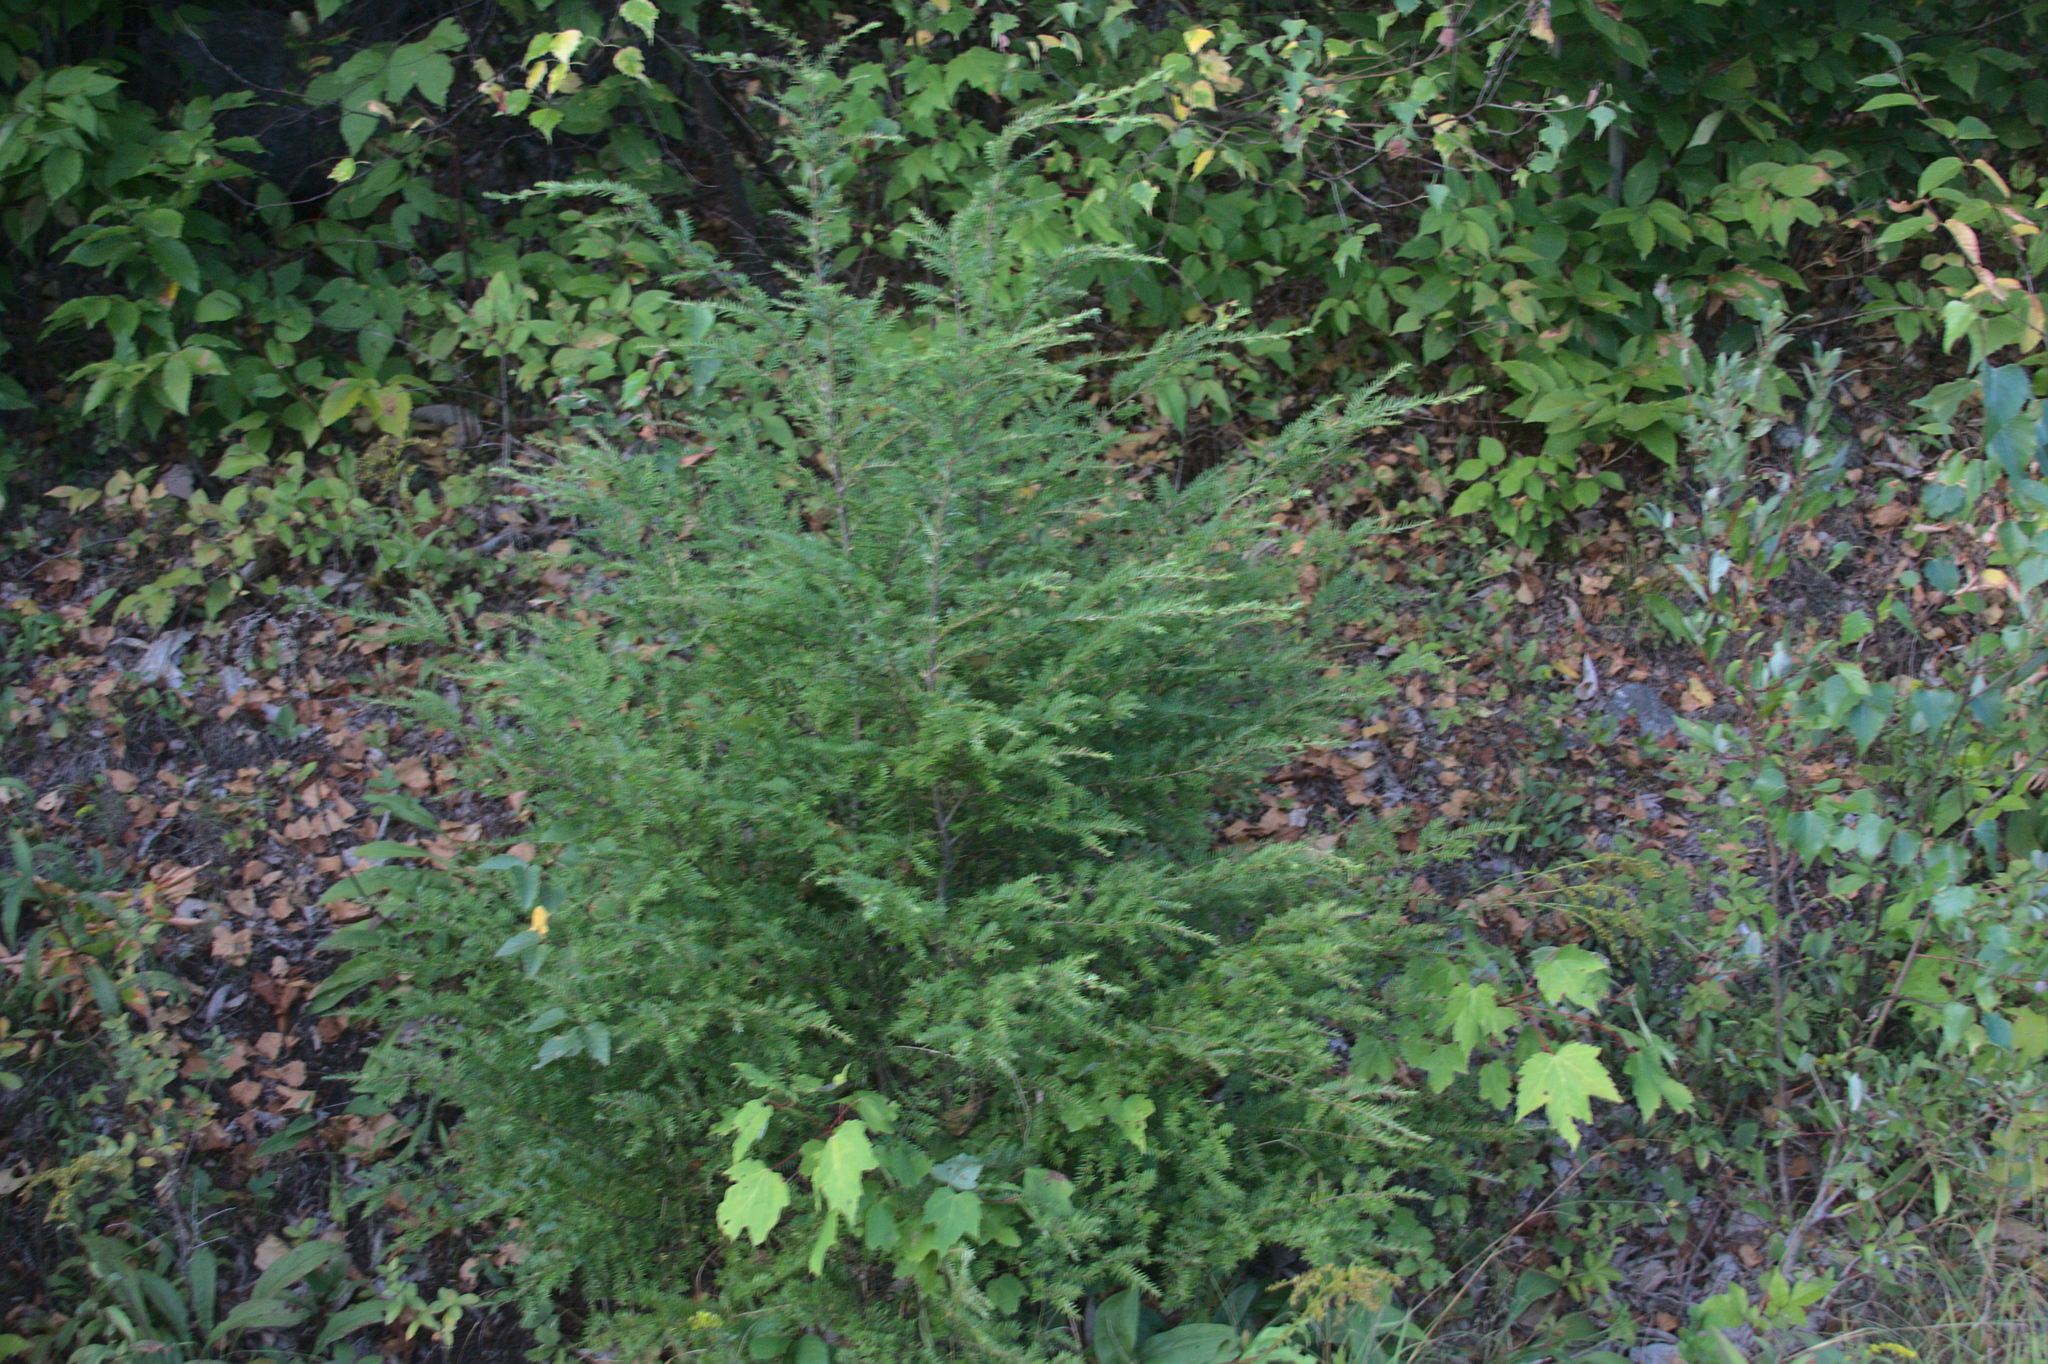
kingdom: Plantae
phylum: Tracheophyta
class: Pinopsida
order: Pinales
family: Pinaceae
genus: Tsuga
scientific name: Tsuga canadensis
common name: Eastern hemlock
